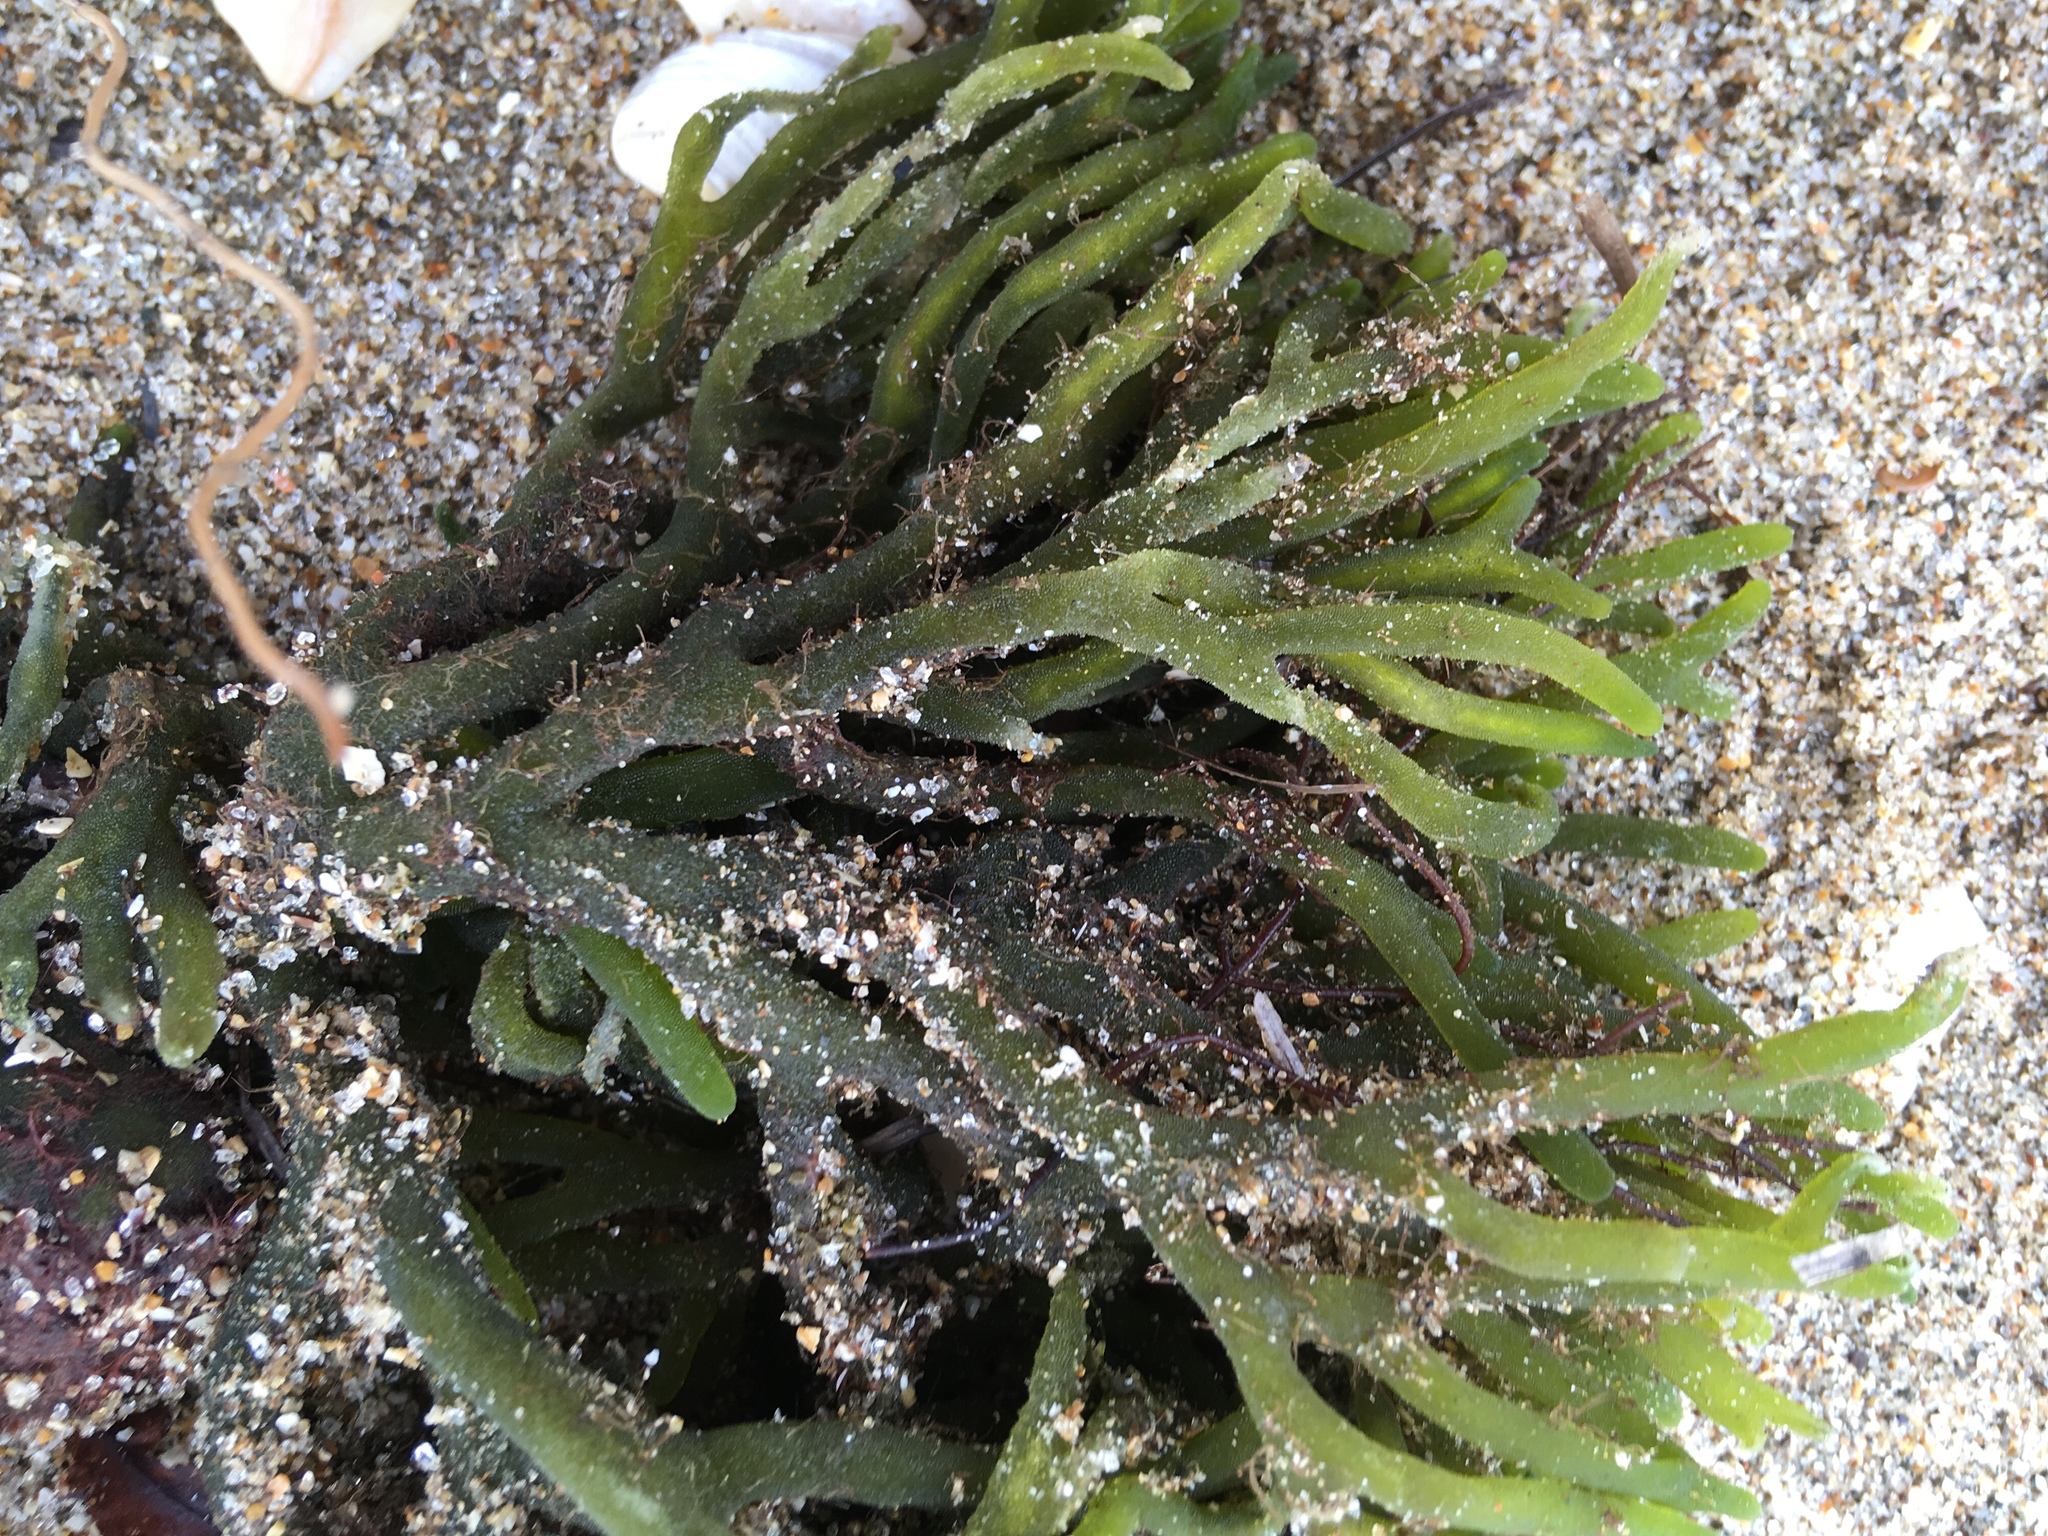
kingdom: Plantae
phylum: Chlorophyta
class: Ulvophyceae
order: Bryopsidales
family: Codiaceae
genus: Codium
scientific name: Codium fragile
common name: Dead man's fingers
